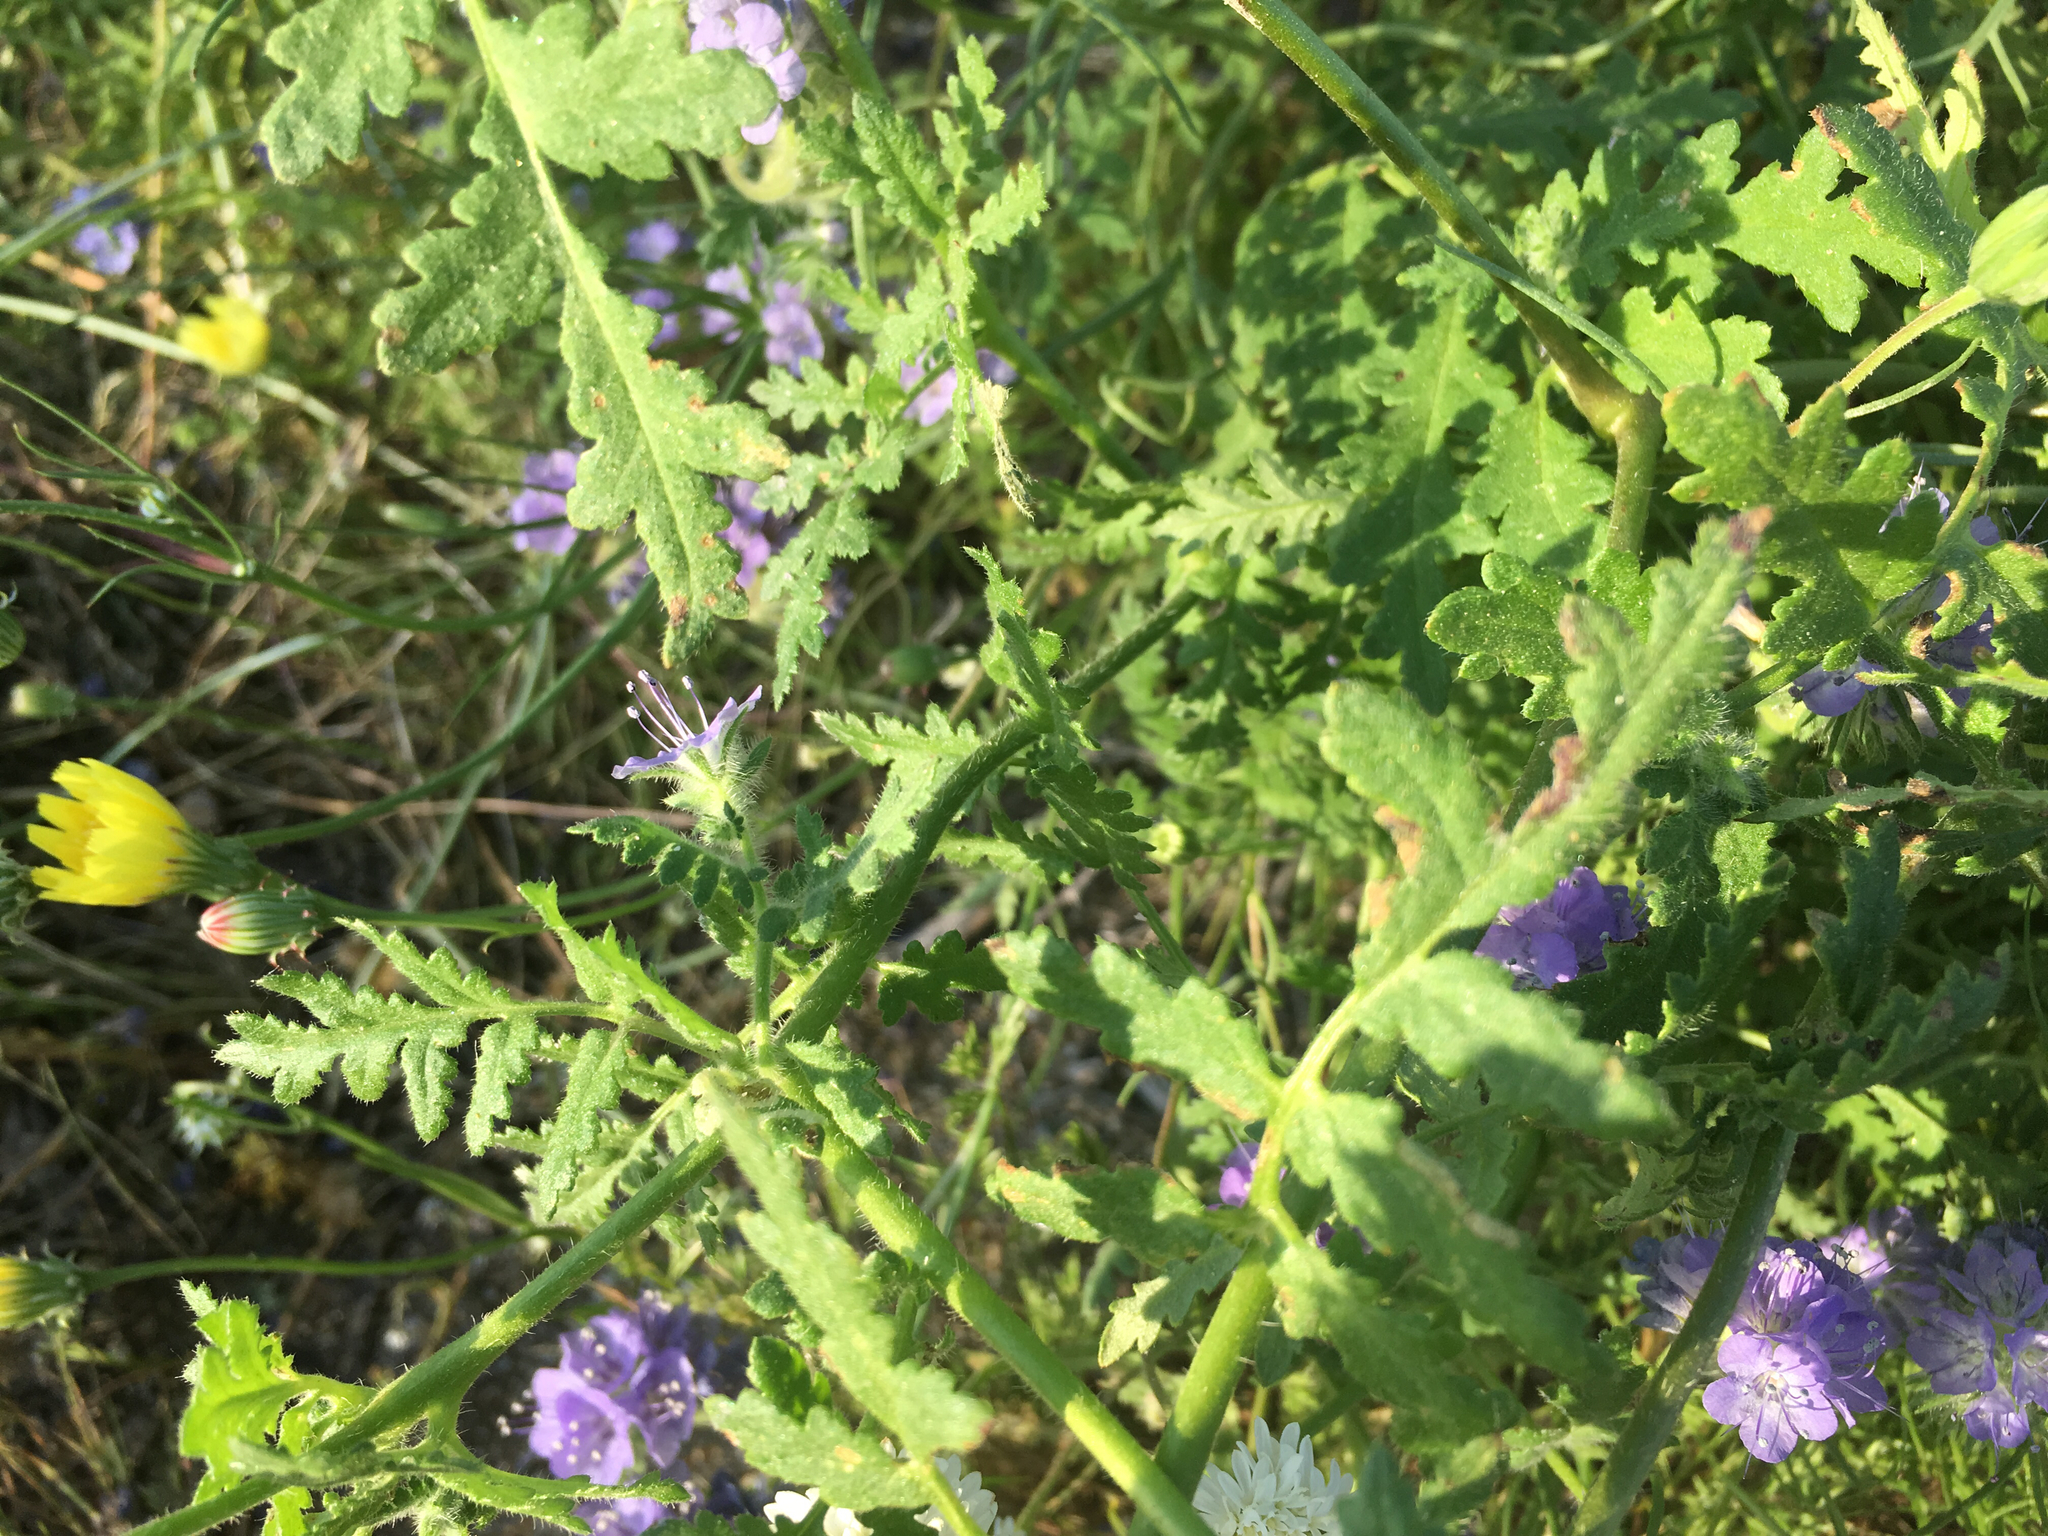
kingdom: Plantae
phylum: Tracheophyta
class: Magnoliopsida
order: Boraginales
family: Hydrophyllaceae
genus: Phacelia
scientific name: Phacelia distans
